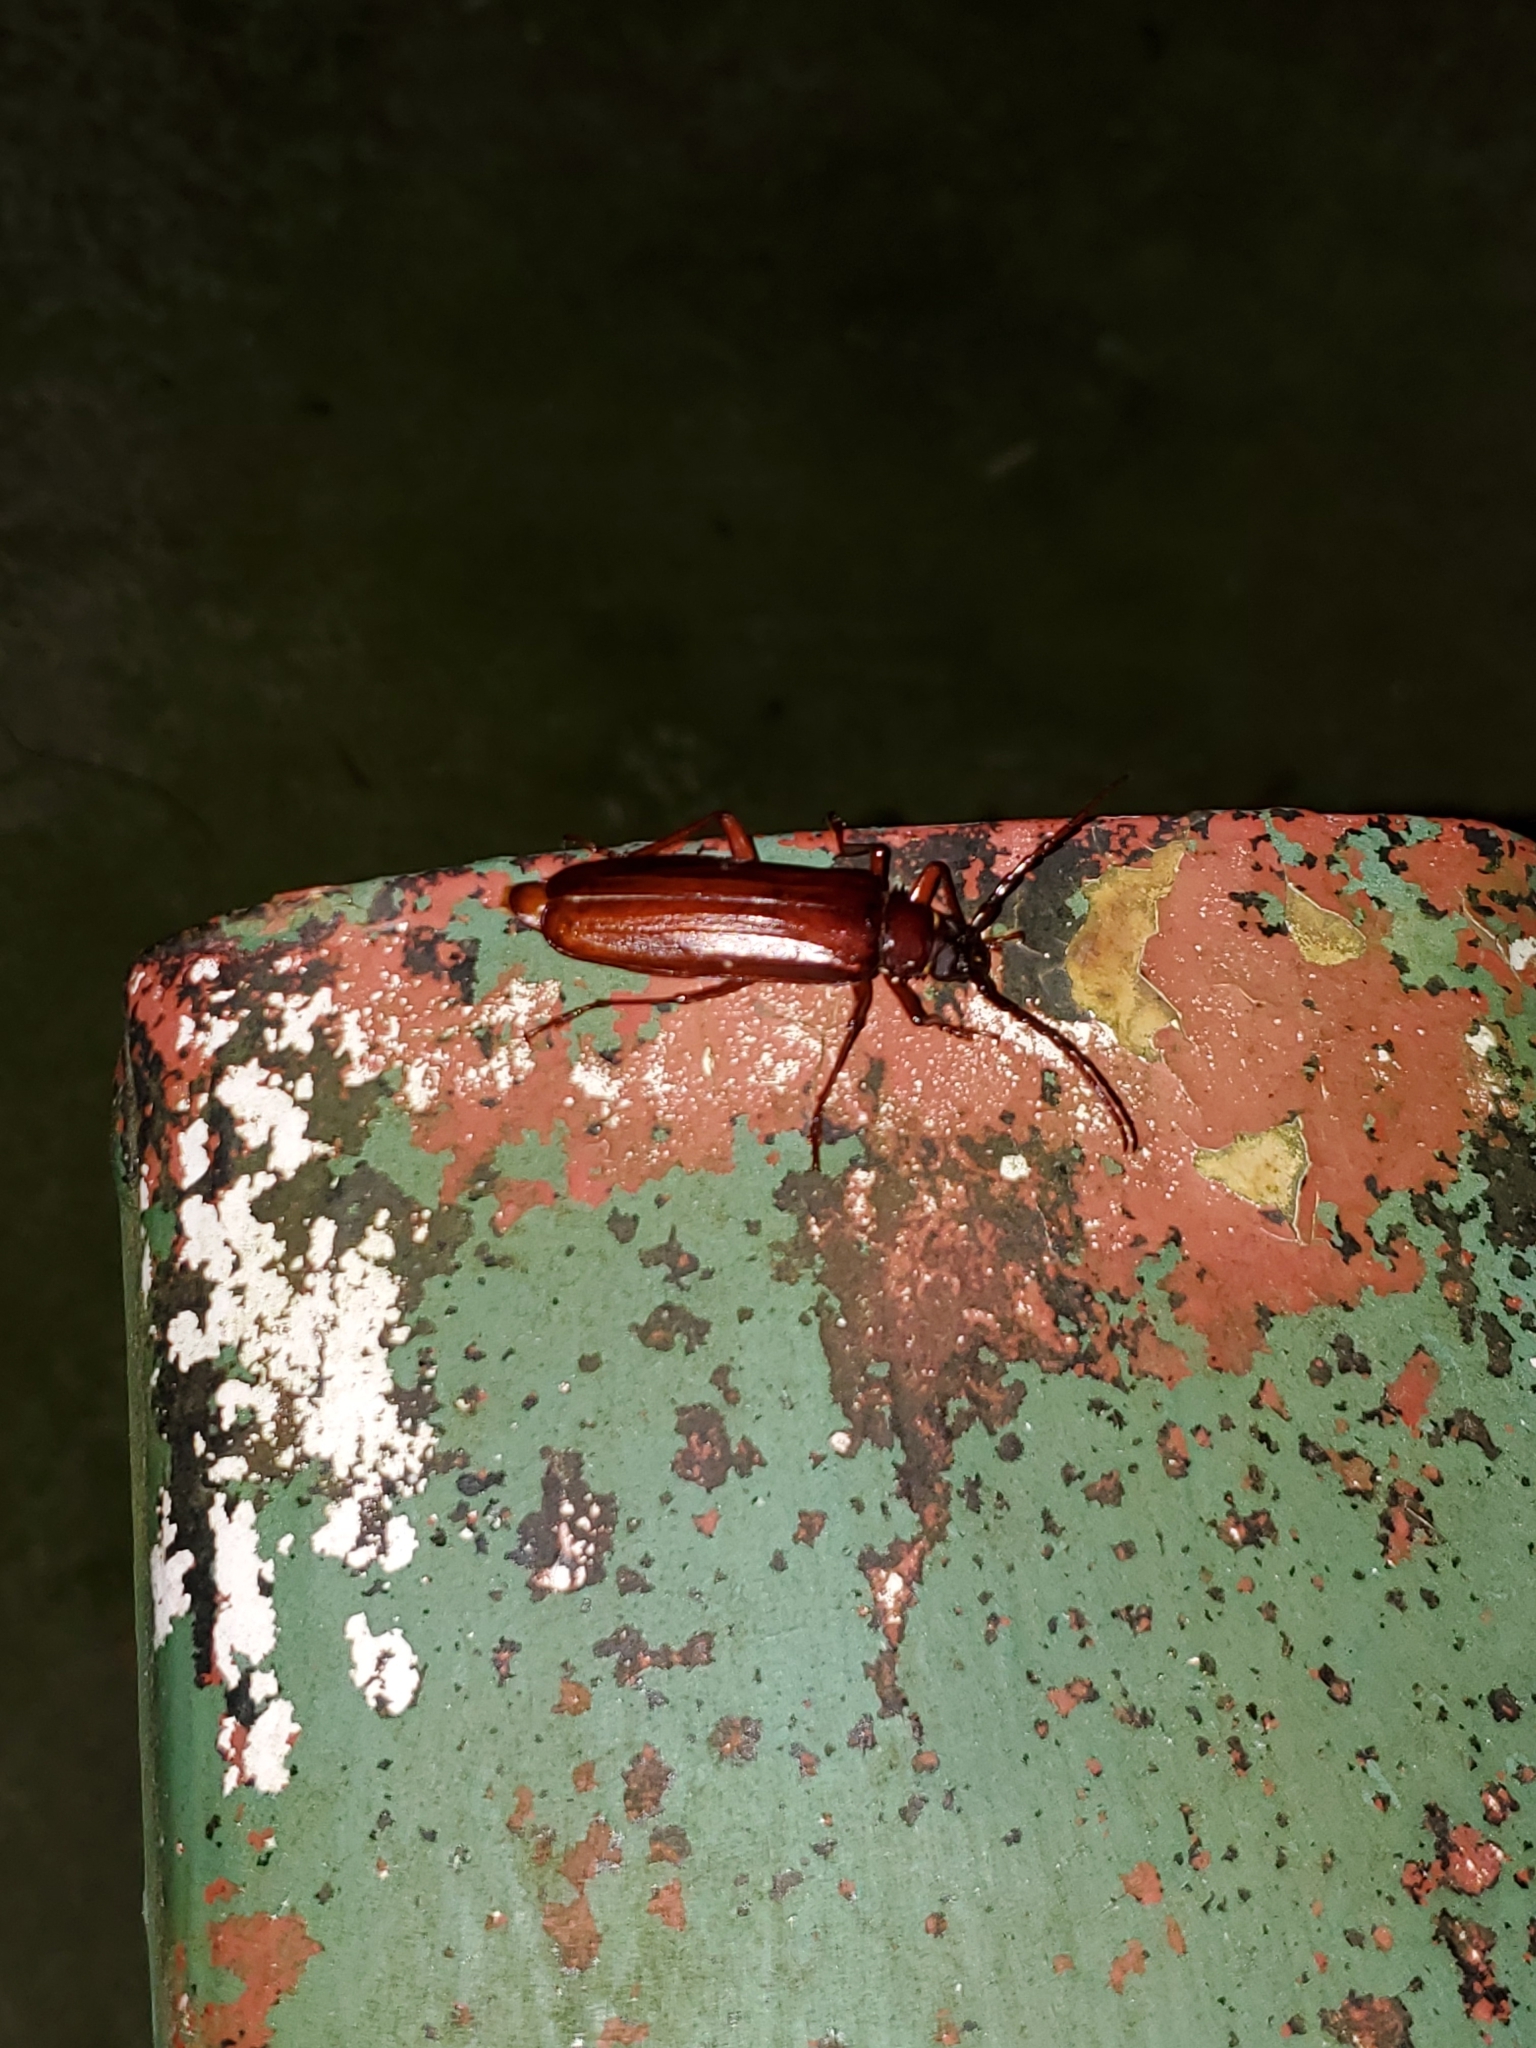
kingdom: Animalia
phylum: Arthropoda
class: Insecta
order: Coleoptera
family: Cerambycidae
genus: Orthosoma
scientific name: Orthosoma brunneum
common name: Brown prionid beetle
